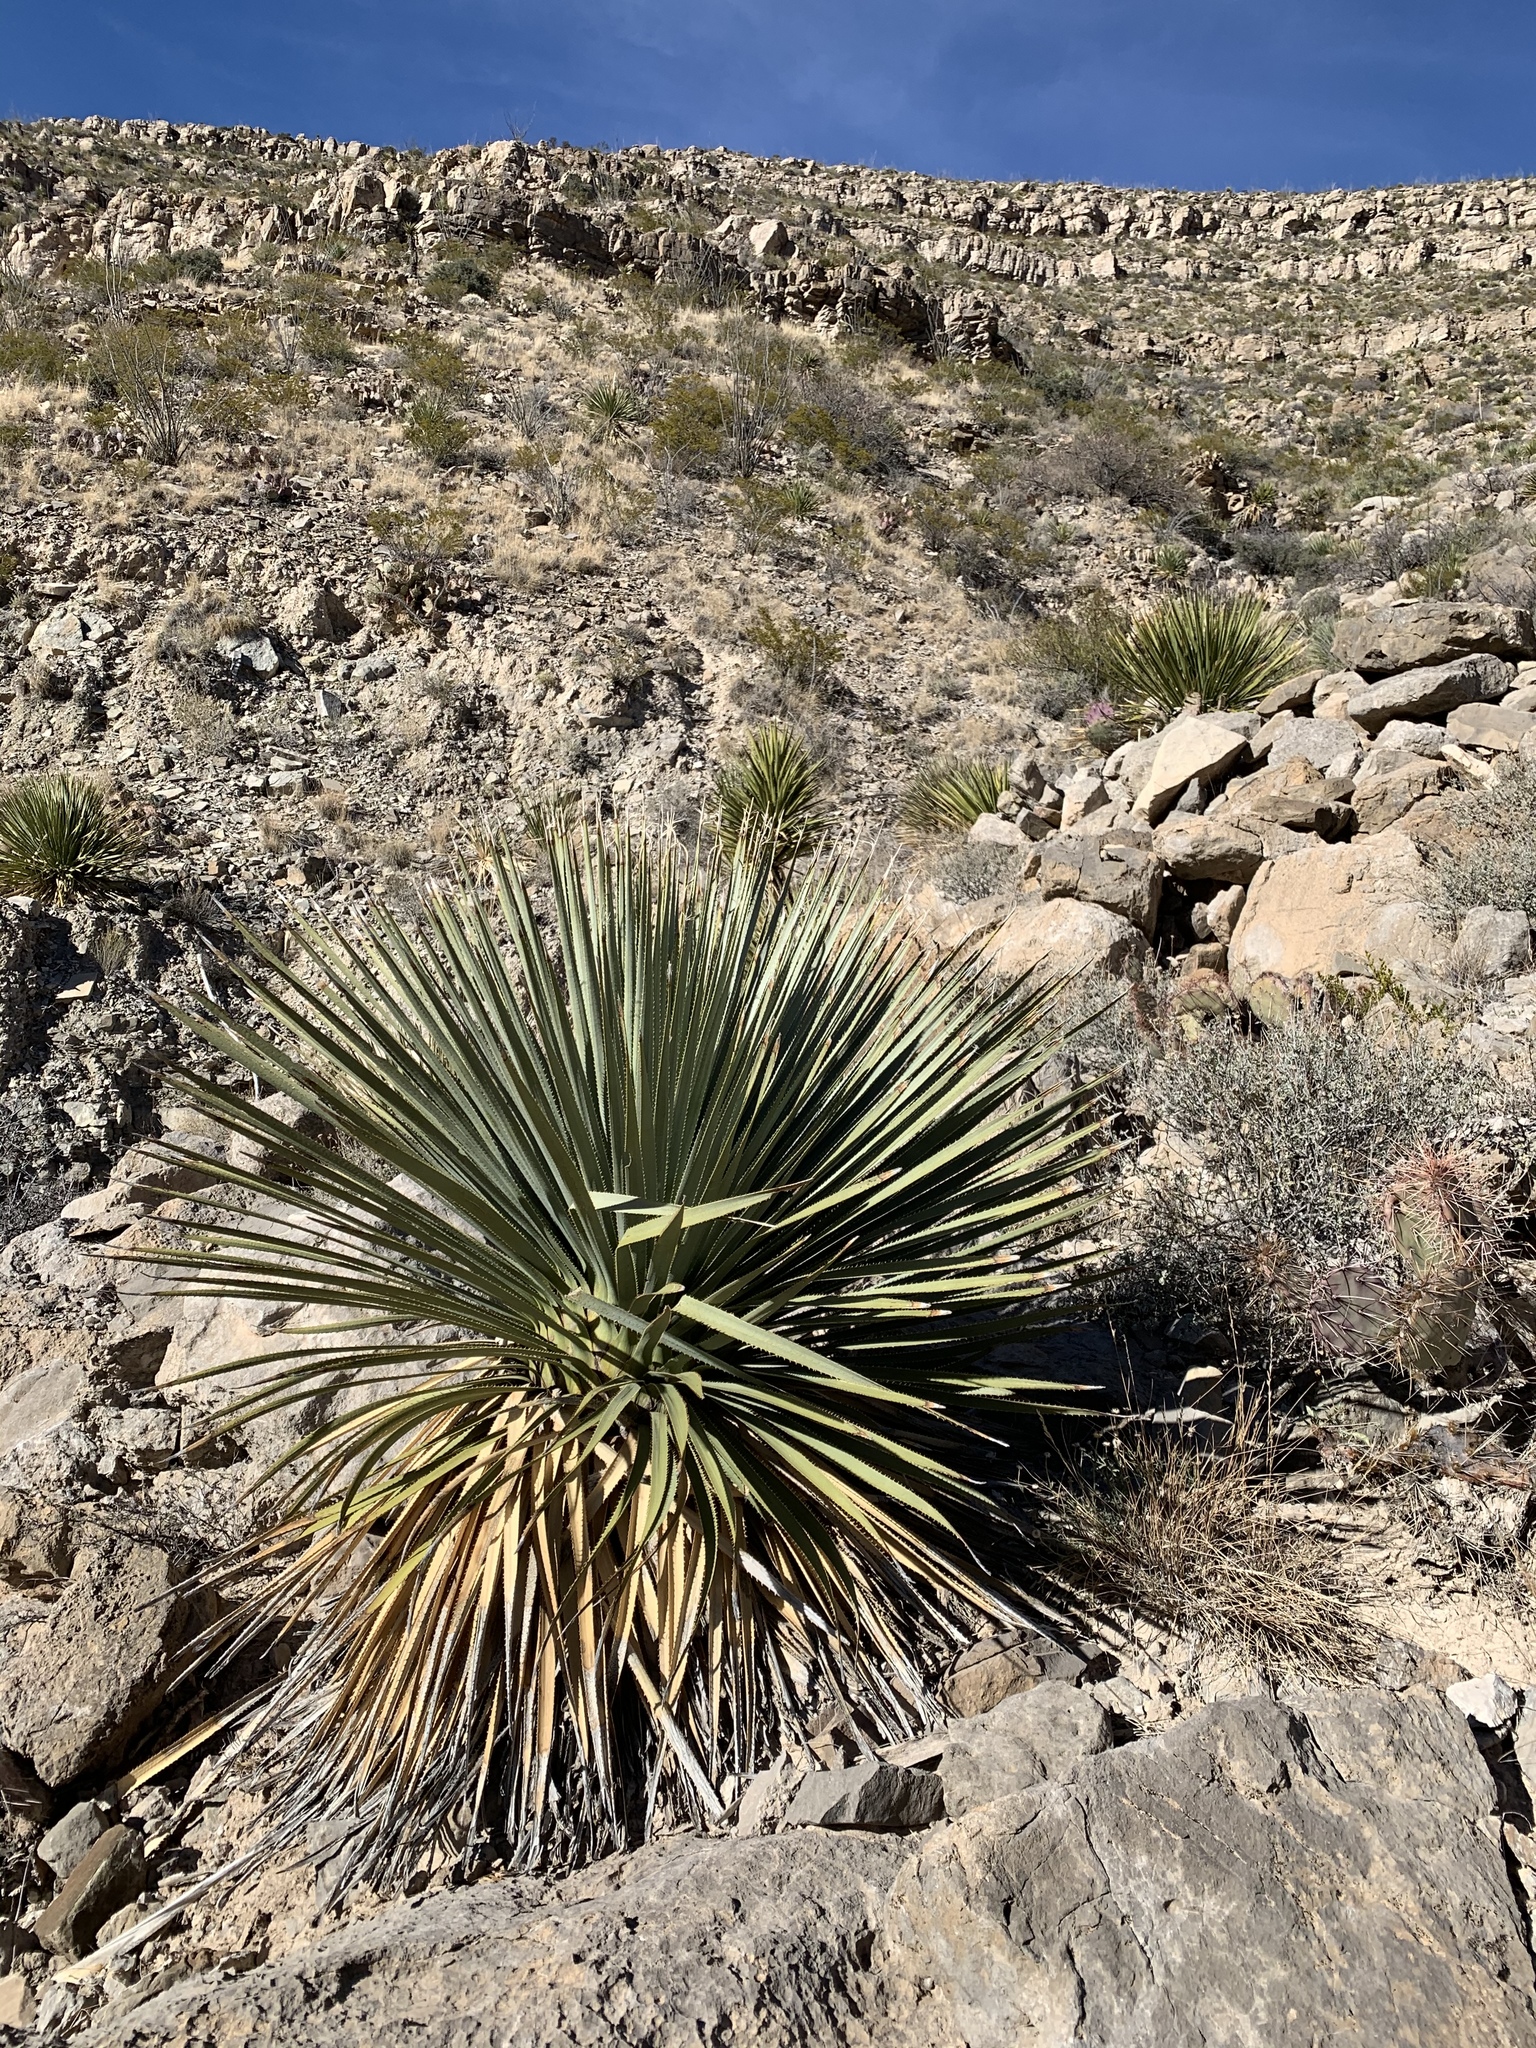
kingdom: Plantae
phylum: Tracheophyta
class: Liliopsida
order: Asparagales
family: Asparagaceae
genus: Dasylirion
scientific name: Dasylirion wheeleri
